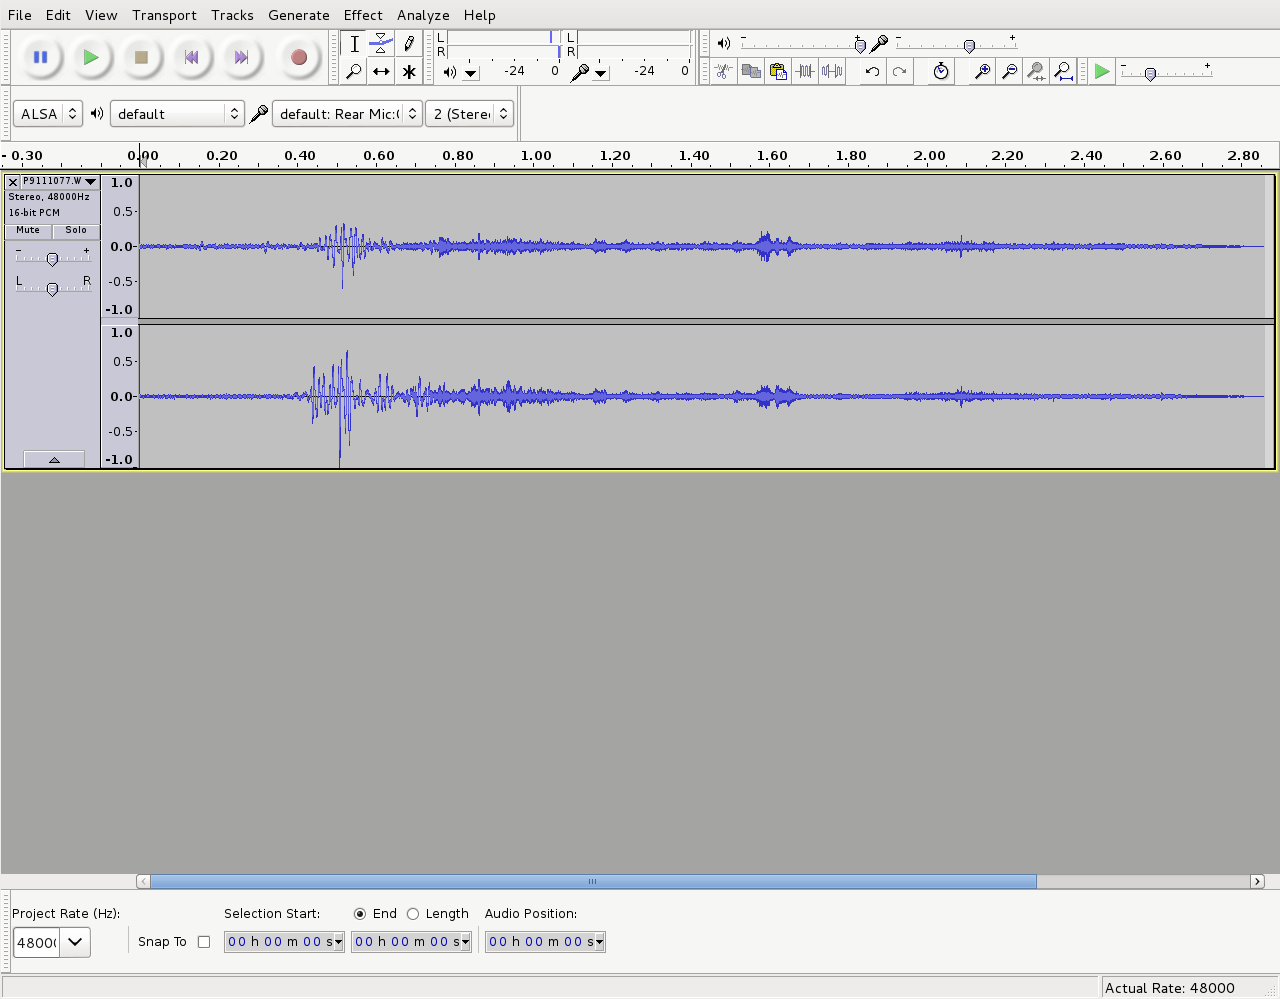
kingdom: Animalia
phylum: Chordata
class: Aves
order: Passeriformes
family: Turdidae
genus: Turdus
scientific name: Turdus merula
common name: Common blackbird
